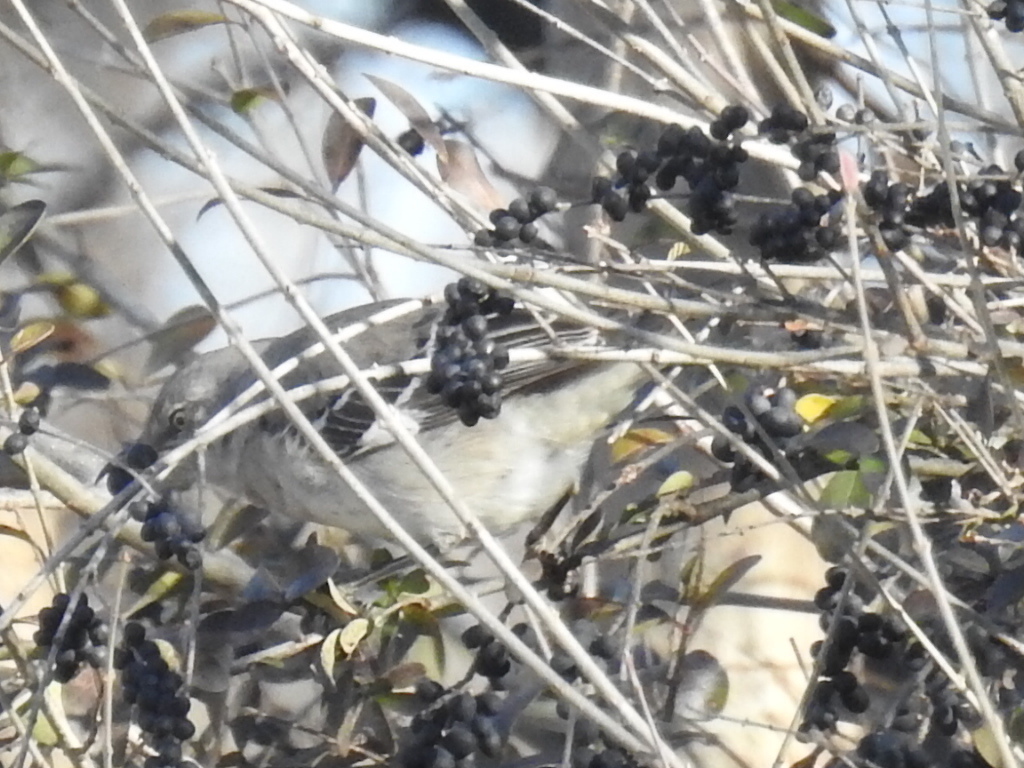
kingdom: Animalia
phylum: Chordata
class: Aves
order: Passeriformes
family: Mimidae
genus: Mimus
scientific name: Mimus polyglottos
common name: Northern mockingbird
